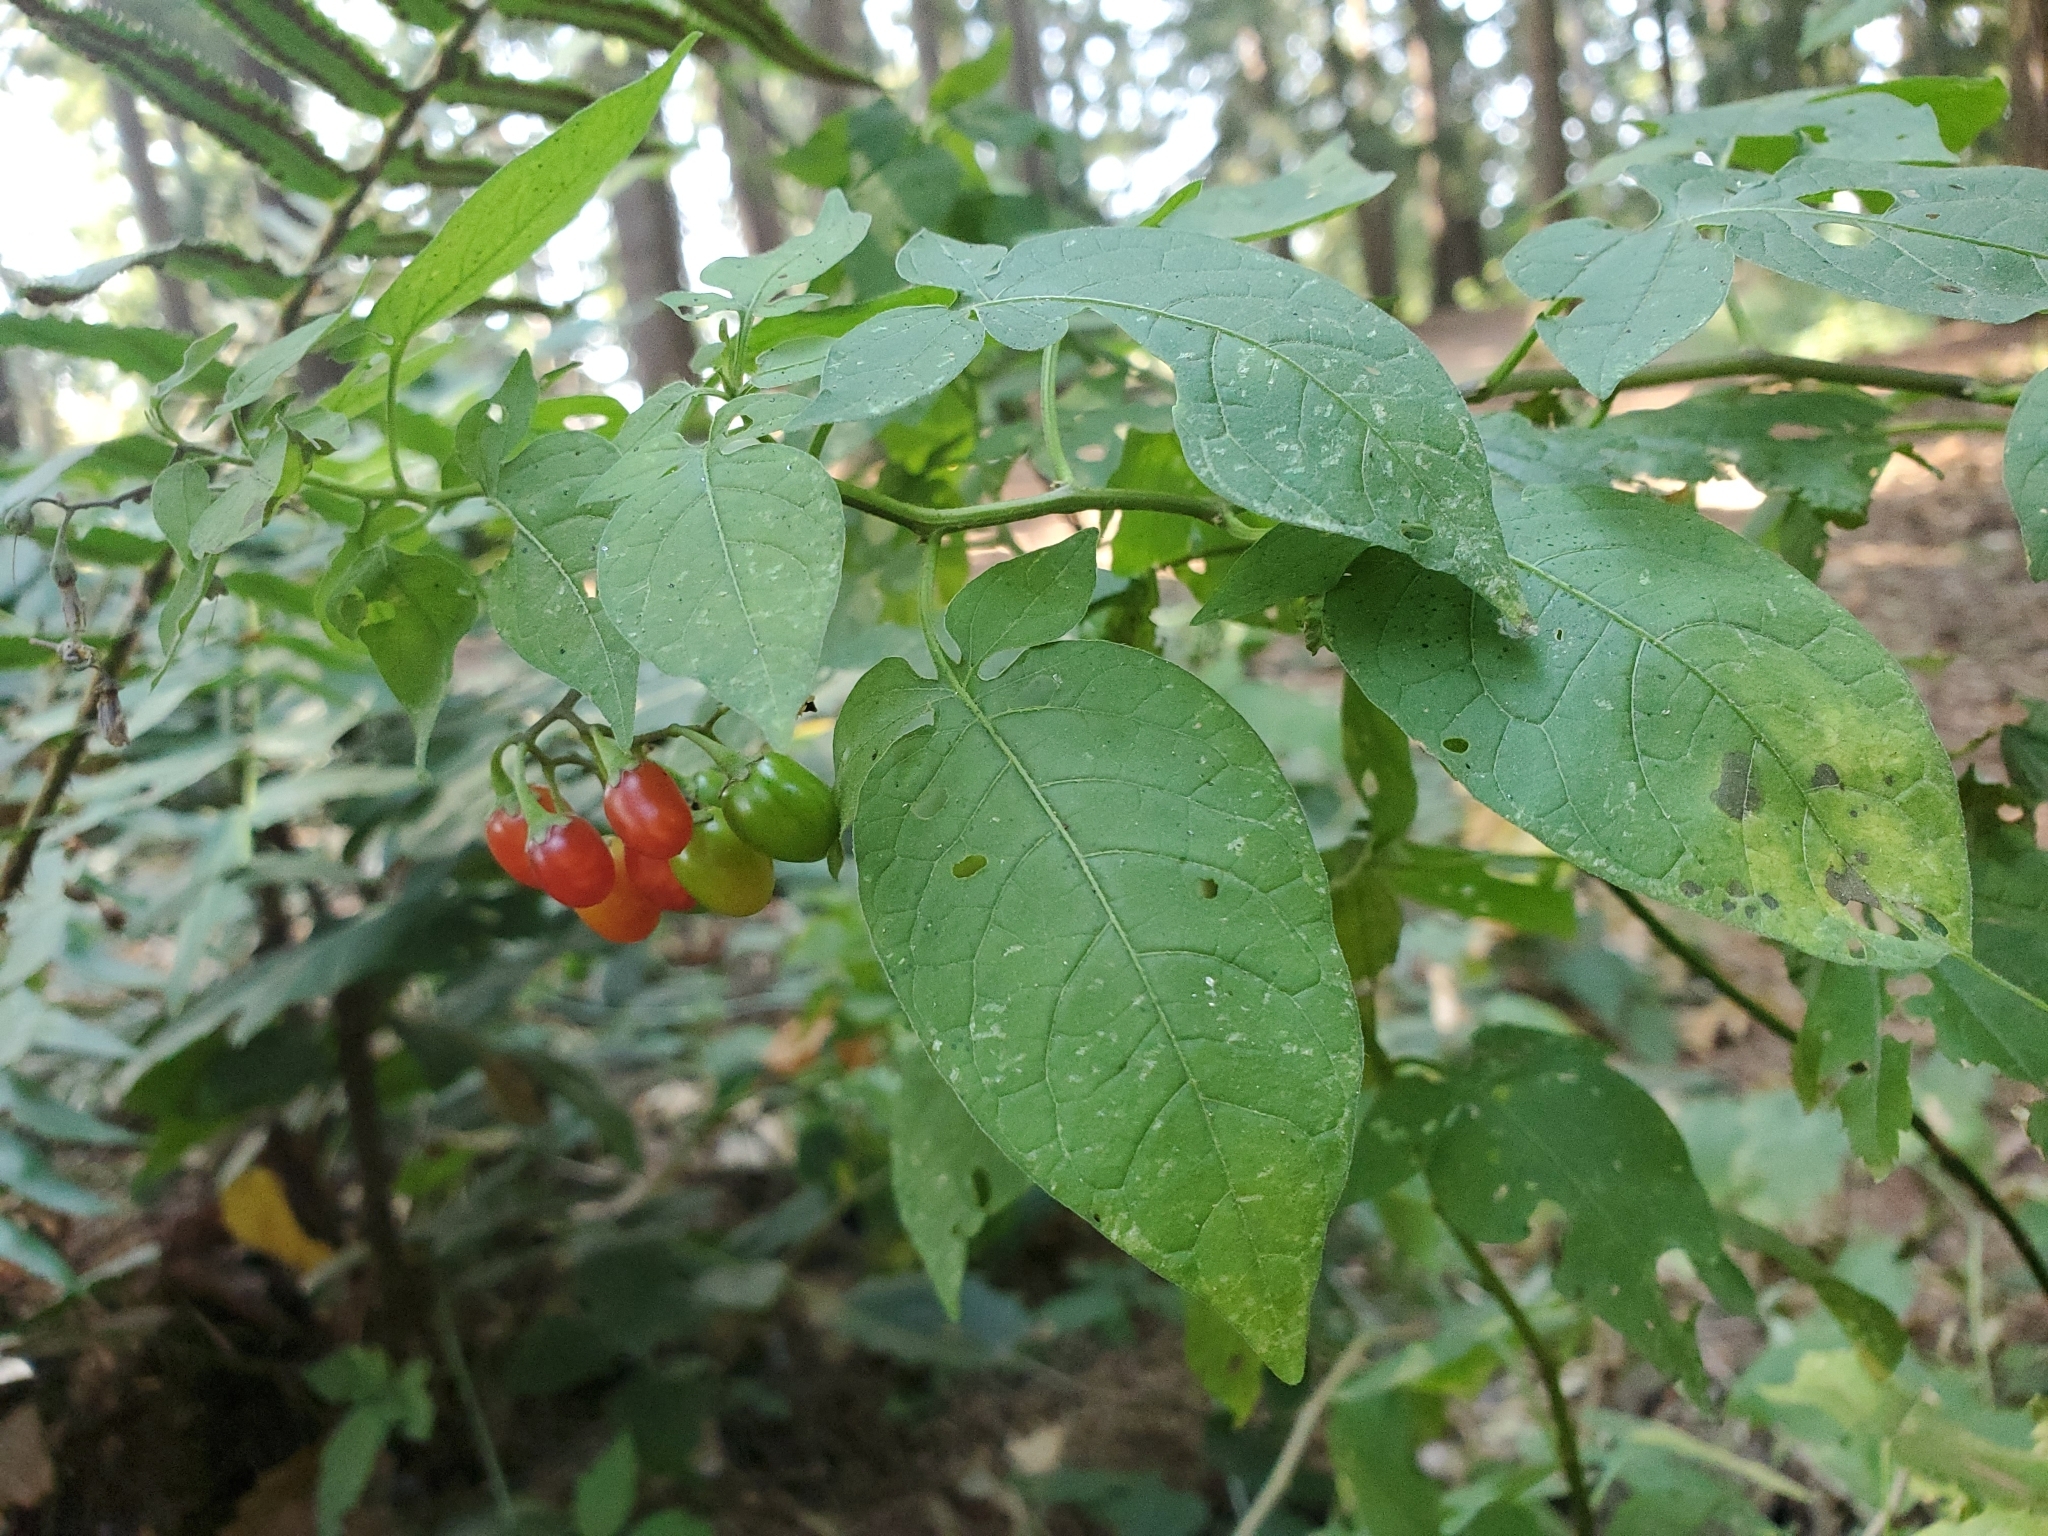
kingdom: Plantae
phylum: Tracheophyta
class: Magnoliopsida
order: Solanales
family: Solanaceae
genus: Solanum
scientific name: Solanum dulcamara
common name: Climbing nightshade
